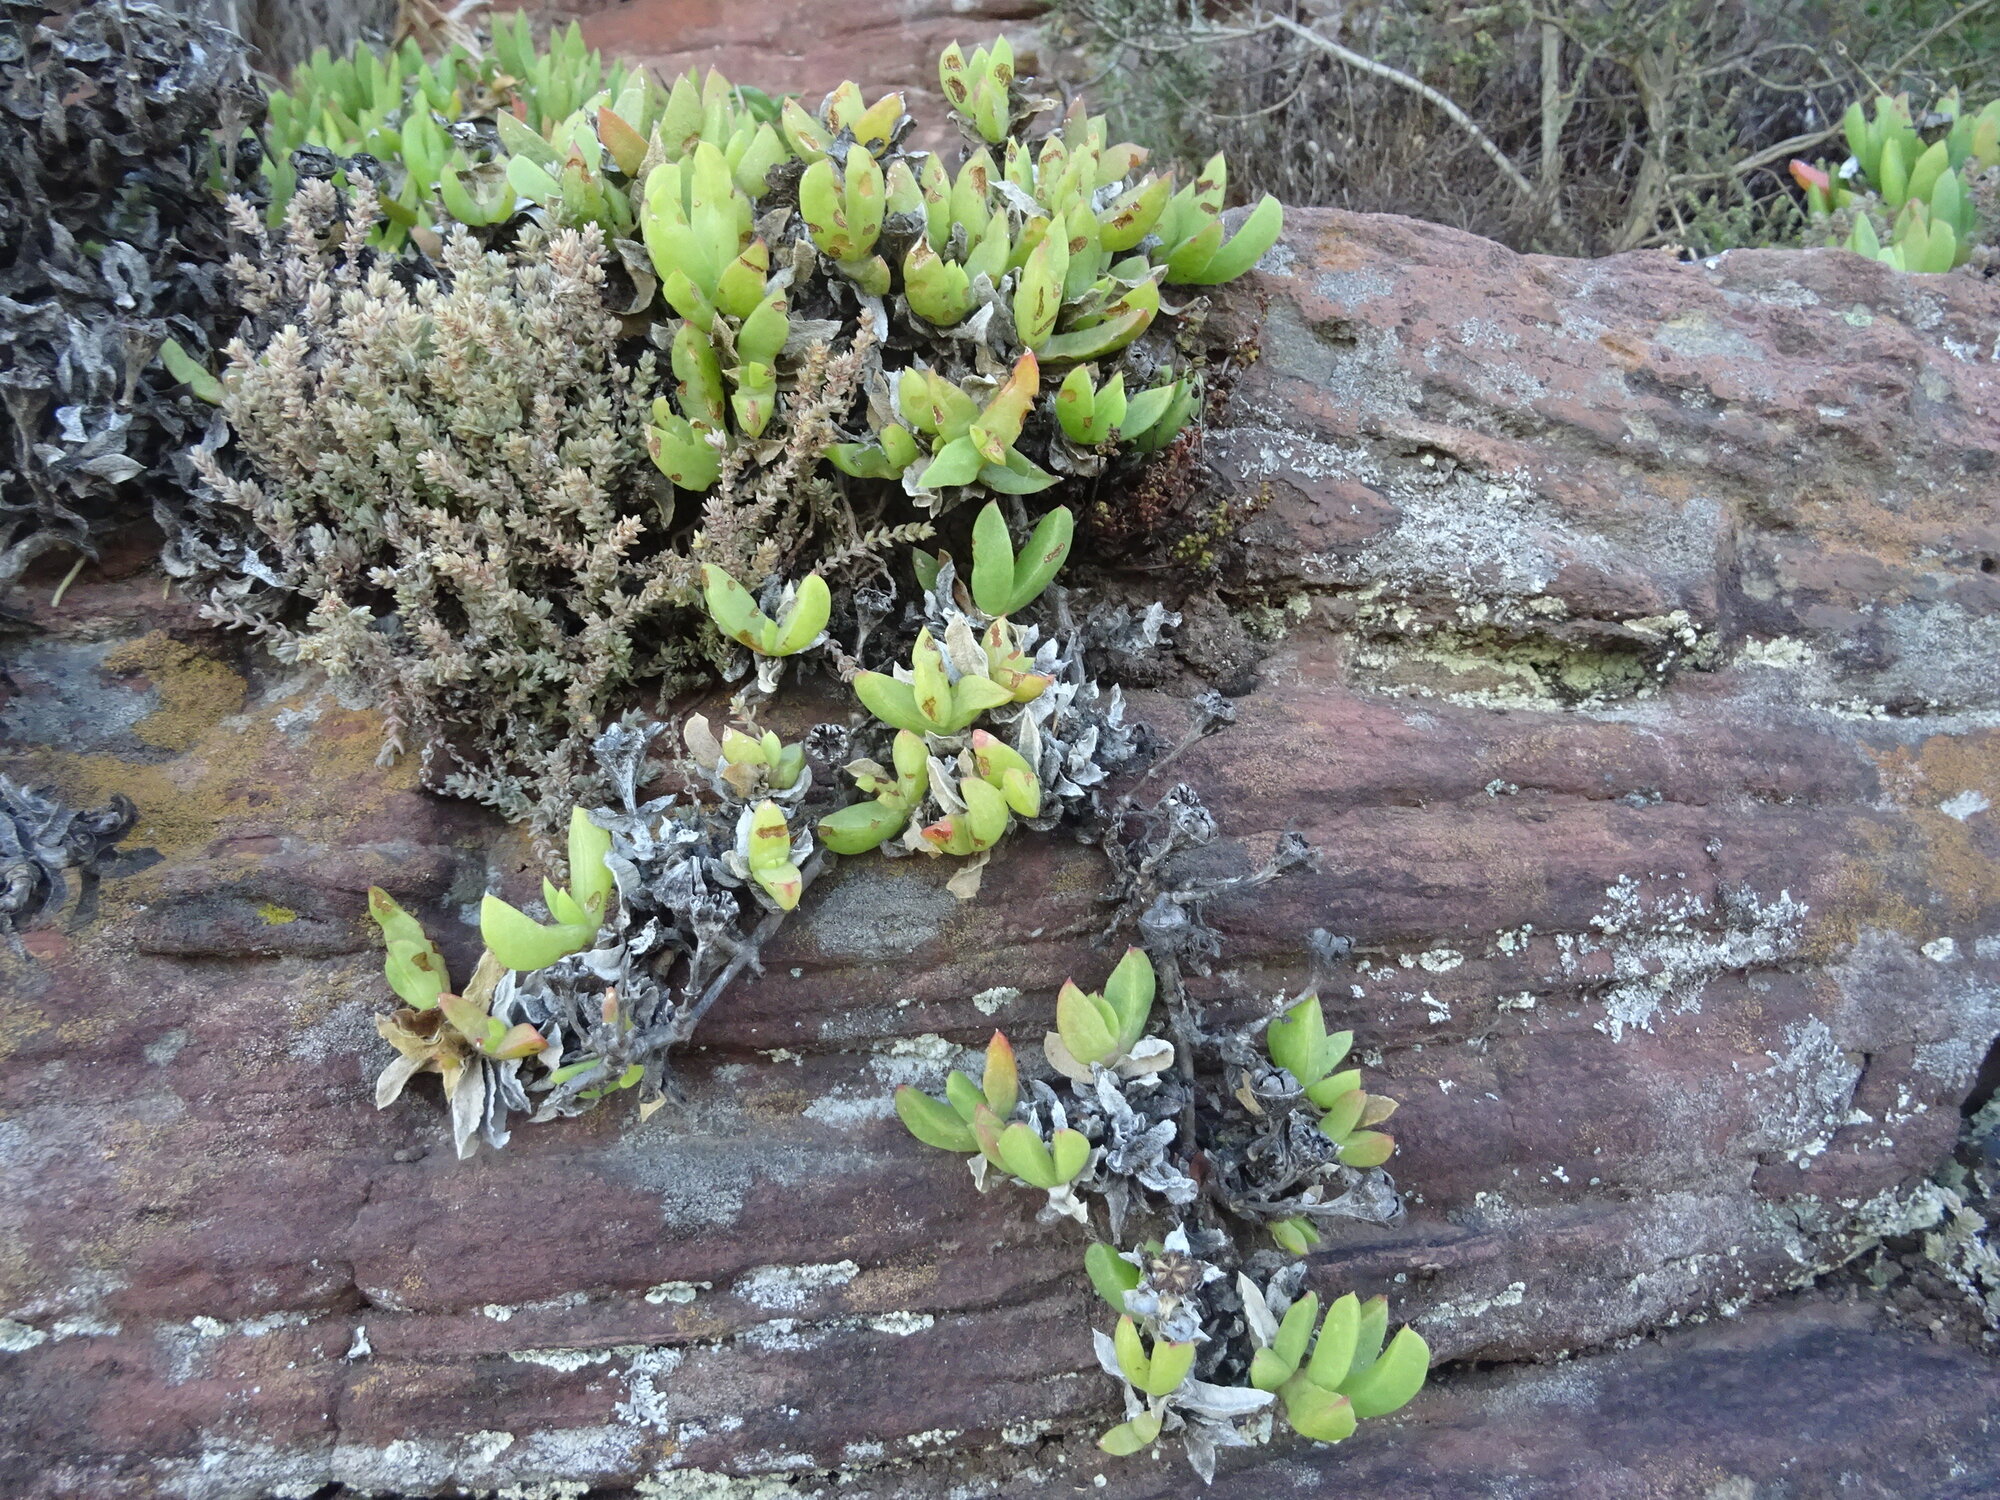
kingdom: Plantae
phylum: Tracheophyta
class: Magnoliopsida
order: Caryophyllales
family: Aizoaceae
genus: Ruschia
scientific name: Ruschia rubricaulis
